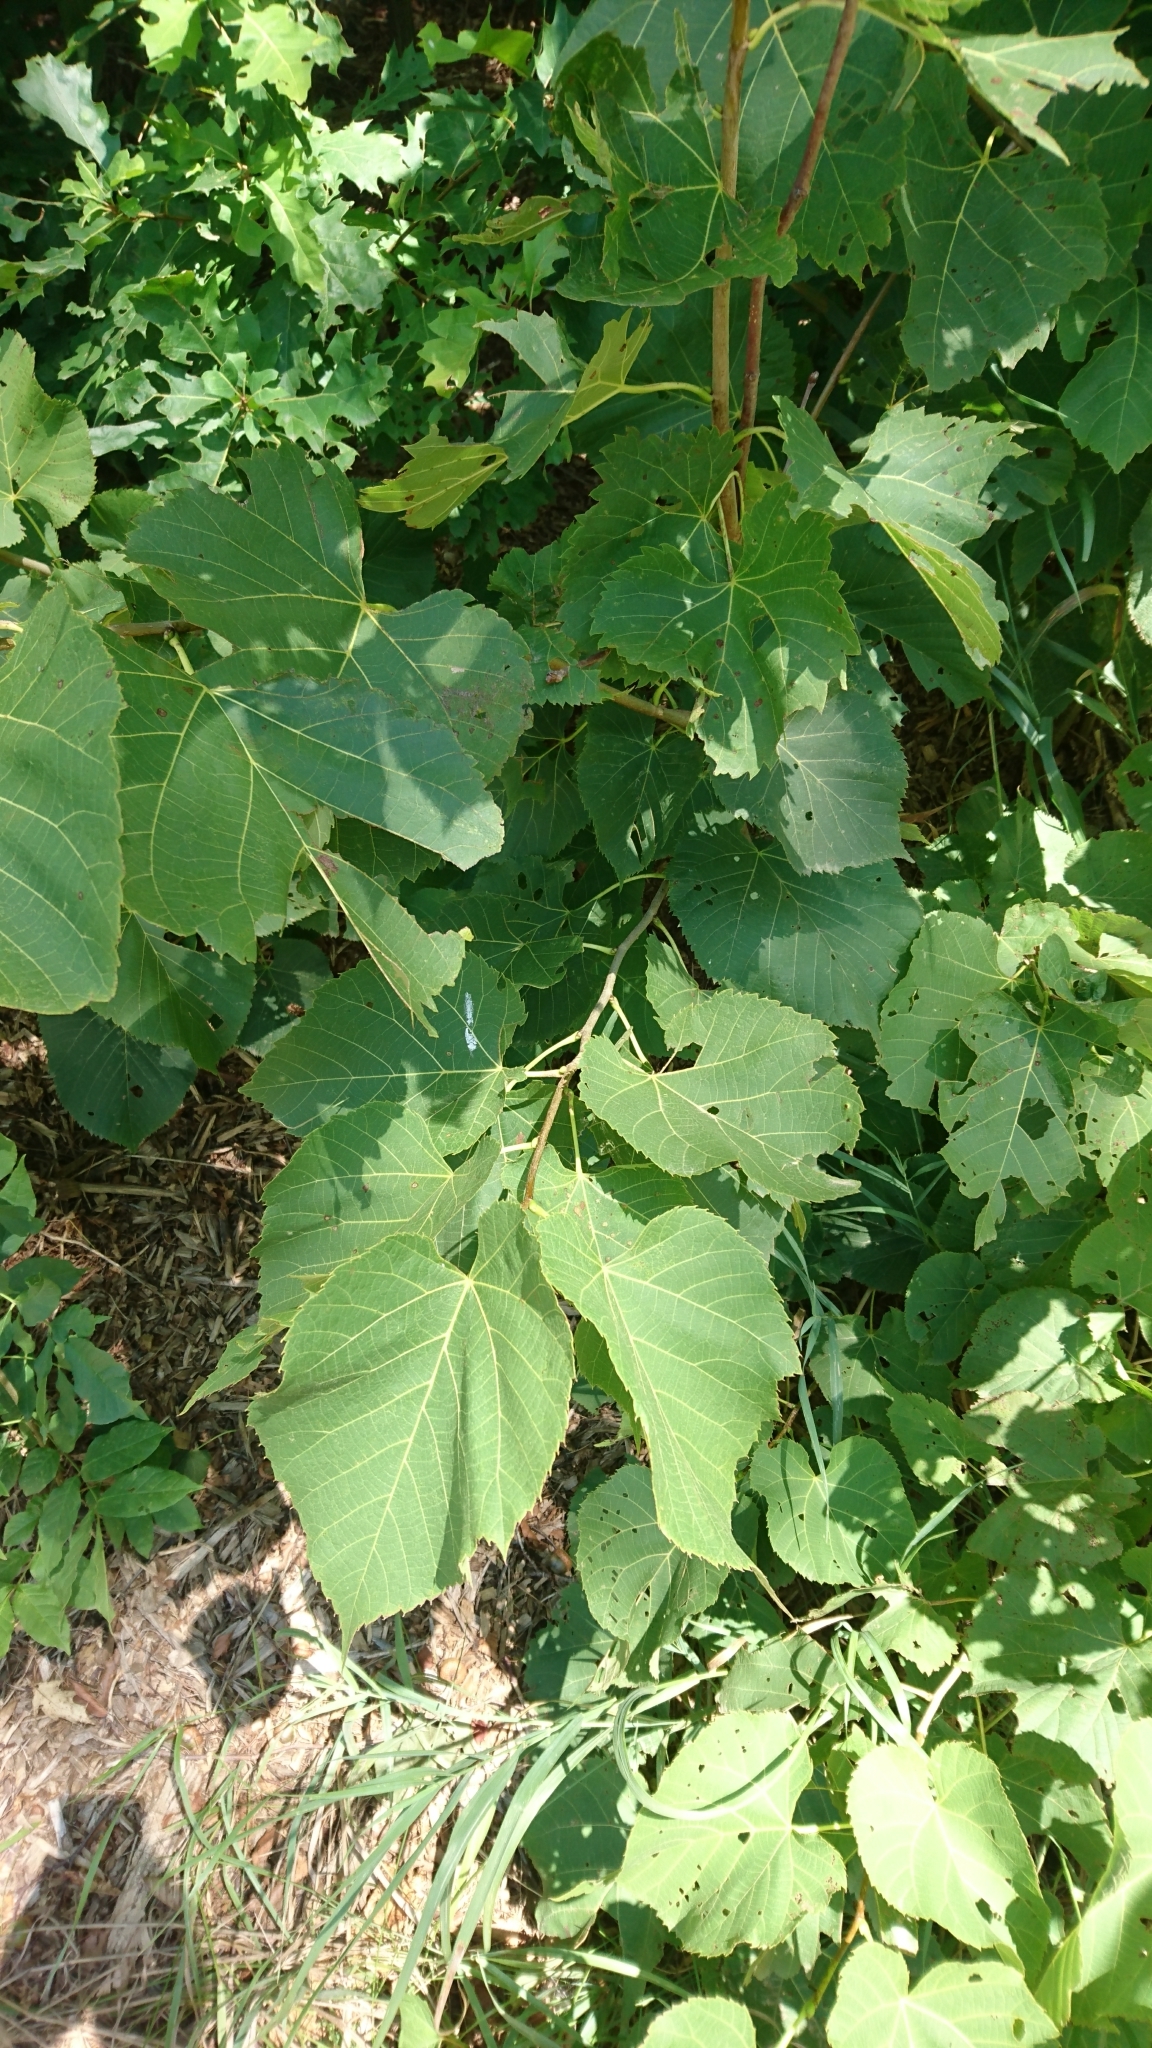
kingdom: Plantae
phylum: Tracheophyta
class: Magnoliopsida
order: Malvales
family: Malvaceae
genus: Tilia
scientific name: Tilia americana
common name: Basswood
